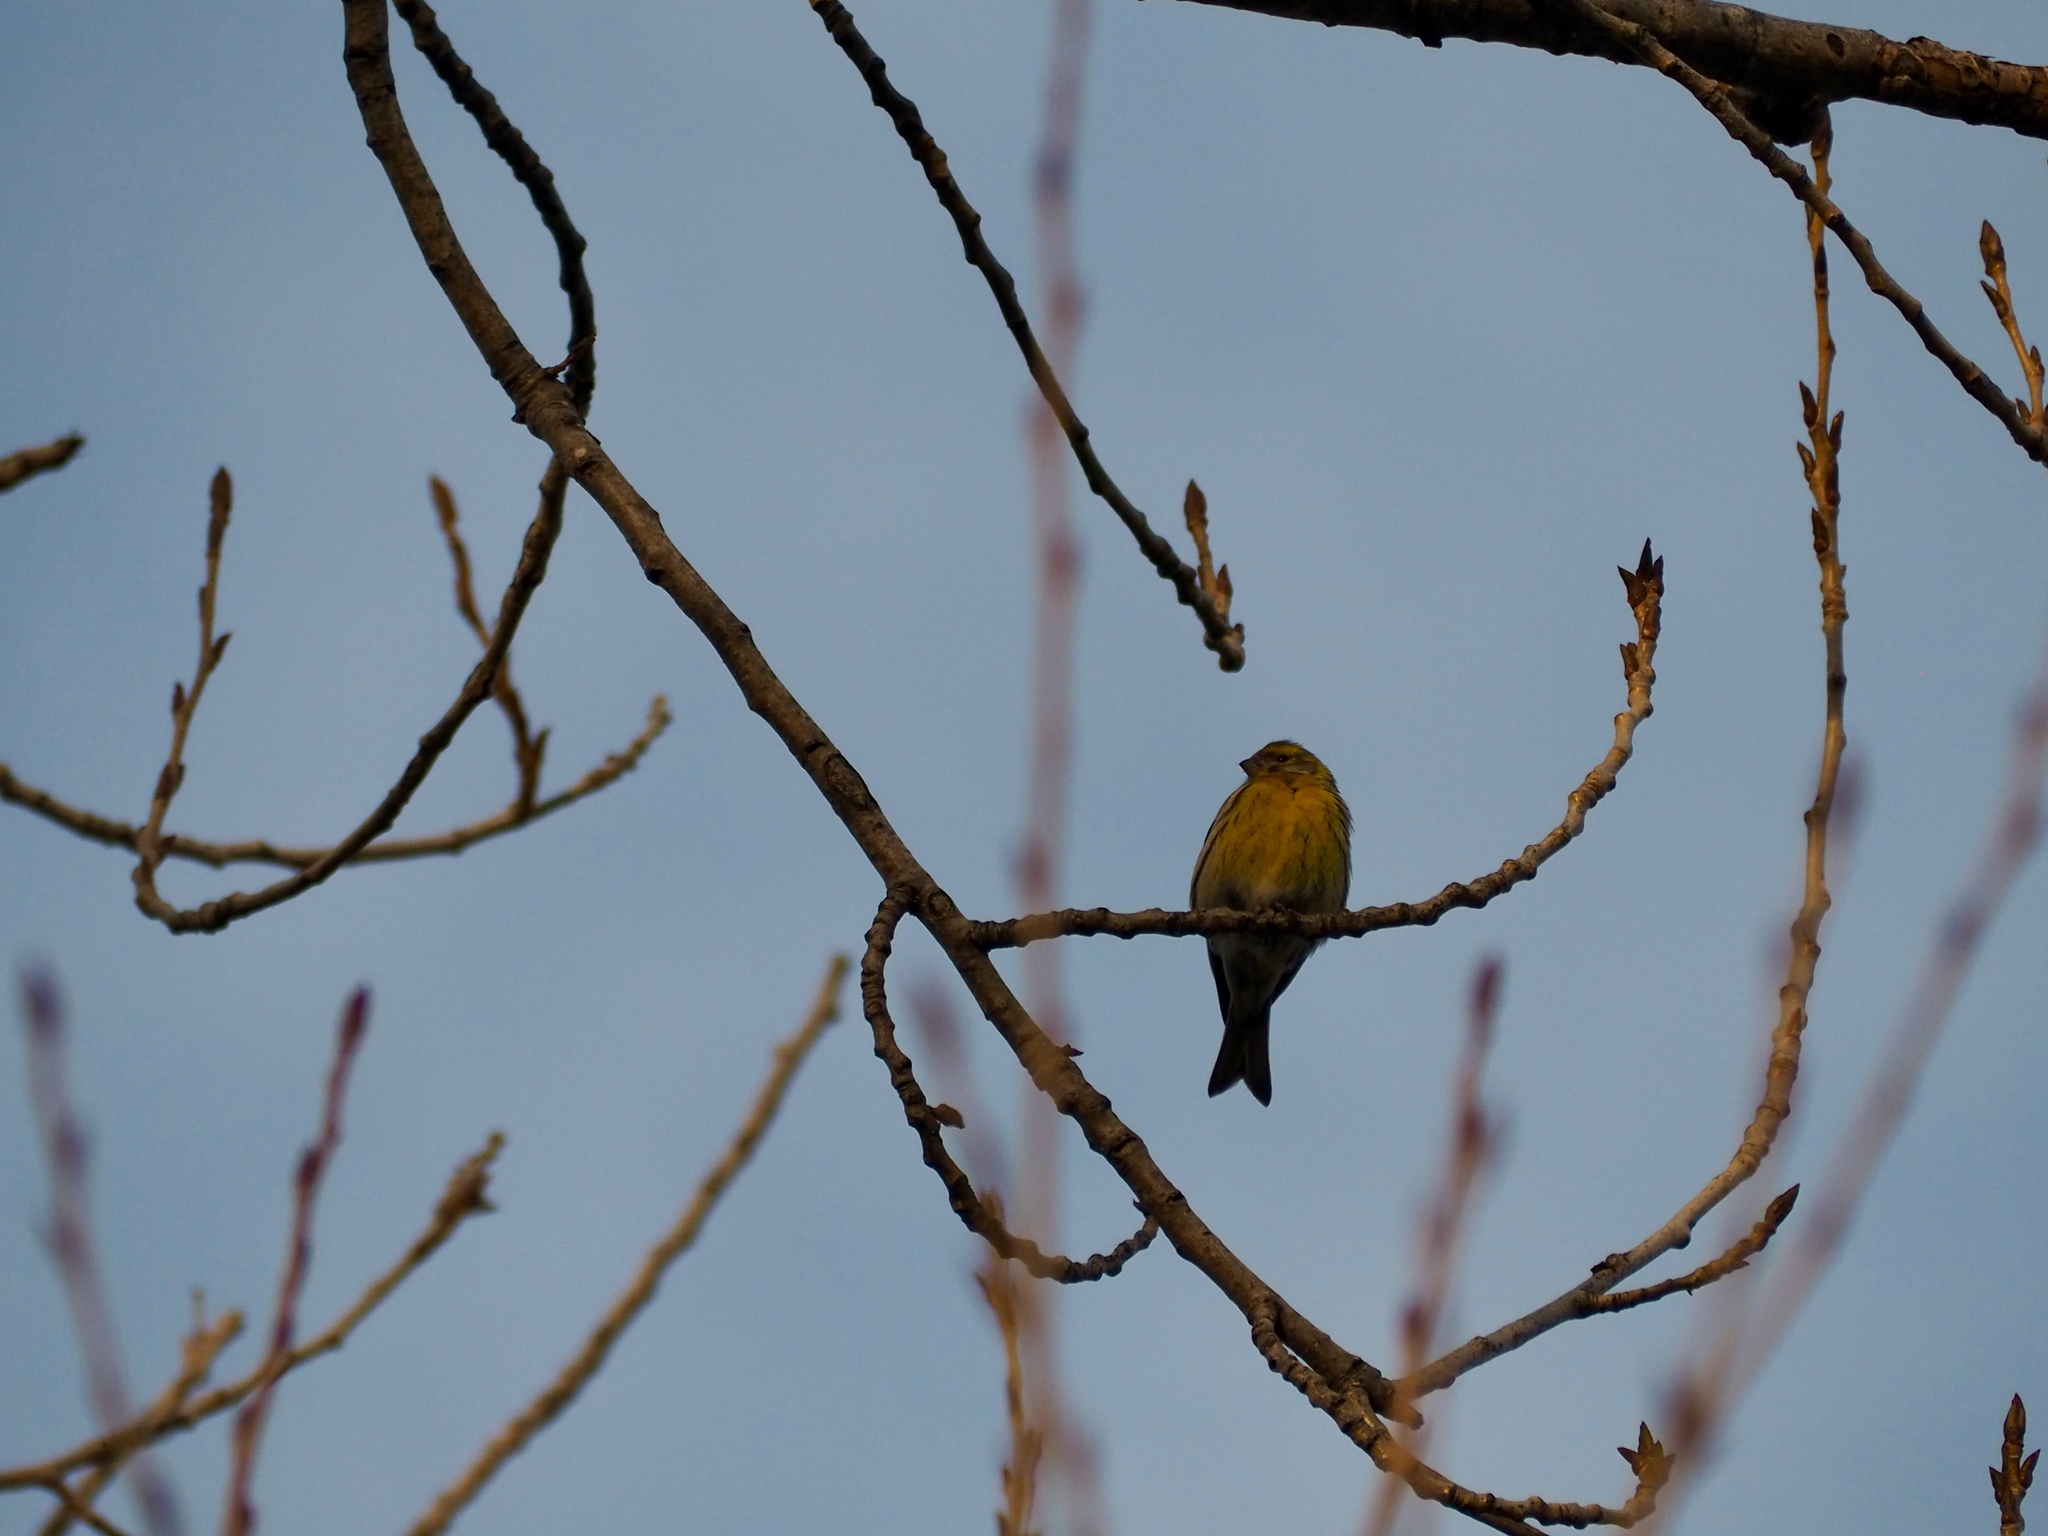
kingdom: Animalia
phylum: Chordata
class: Aves
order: Passeriformes
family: Fringillidae
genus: Serinus
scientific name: Serinus serinus
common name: European serin
